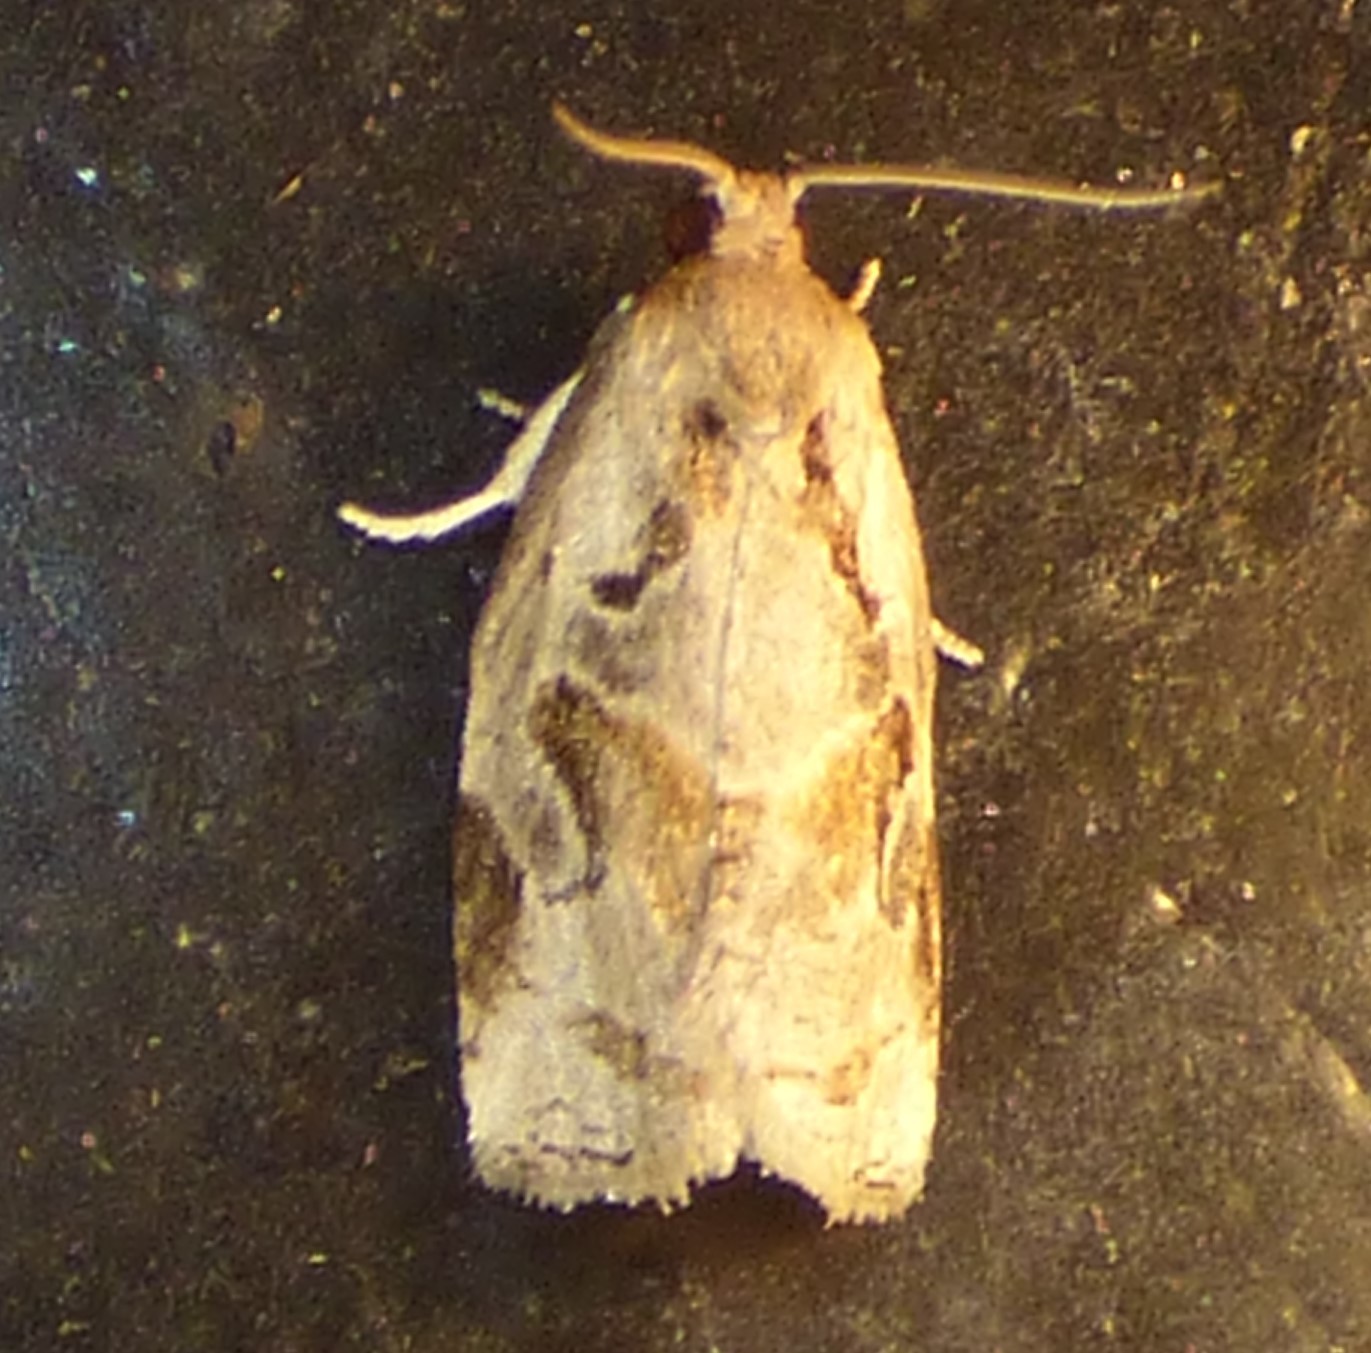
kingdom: Animalia
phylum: Arthropoda
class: Insecta
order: Lepidoptera
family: Tortricidae
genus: Archips
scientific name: Archips grisea
